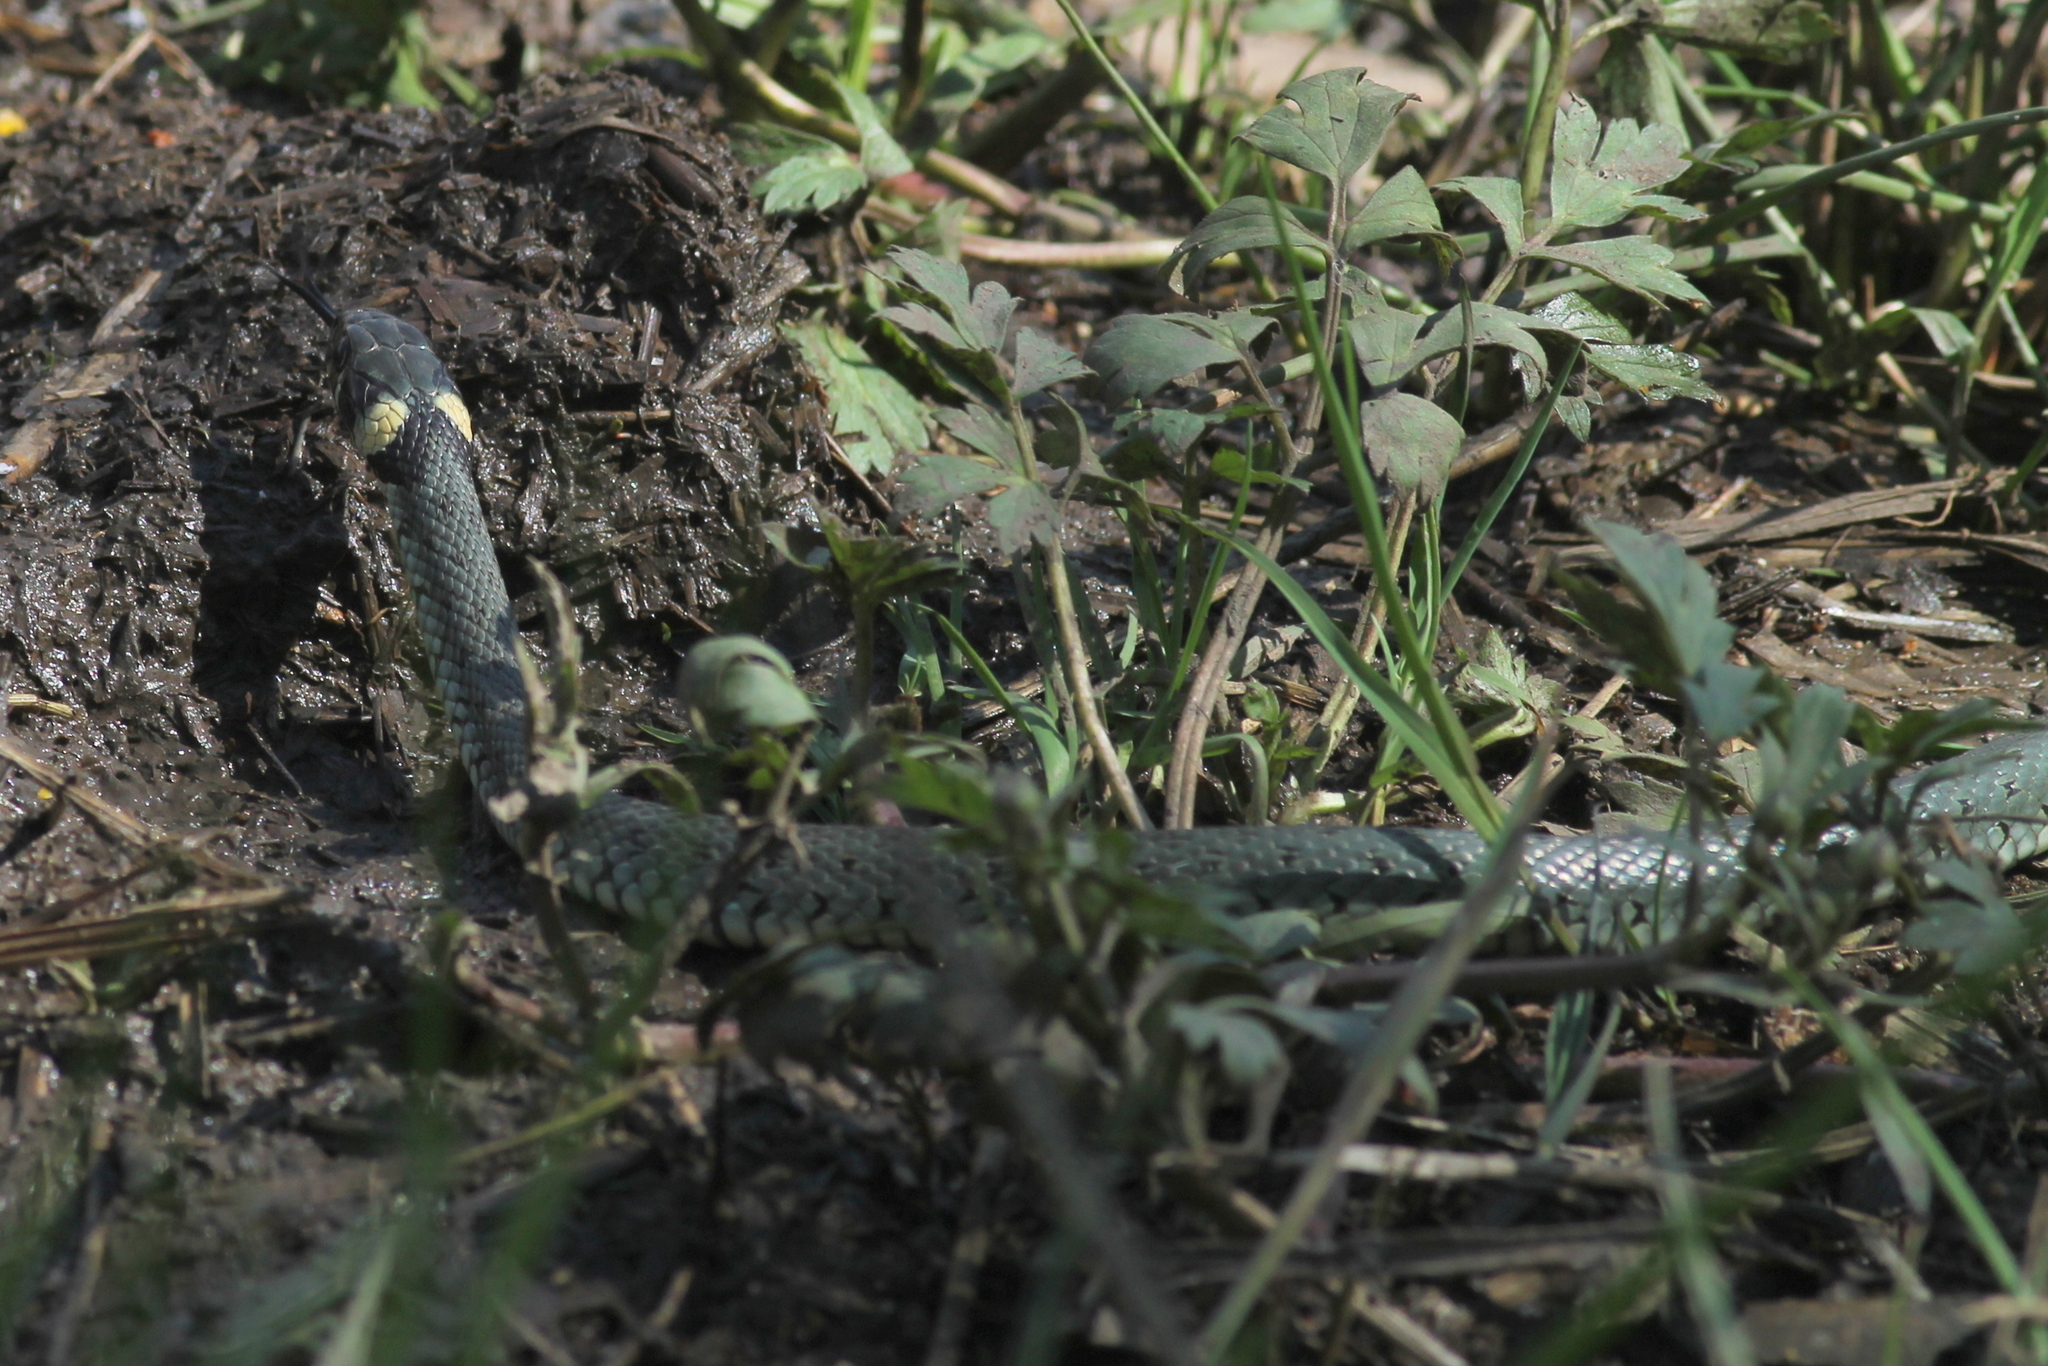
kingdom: Animalia
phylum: Chordata
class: Squamata
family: Colubridae
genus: Natrix
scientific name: Natrix natrix
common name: Grass snake
